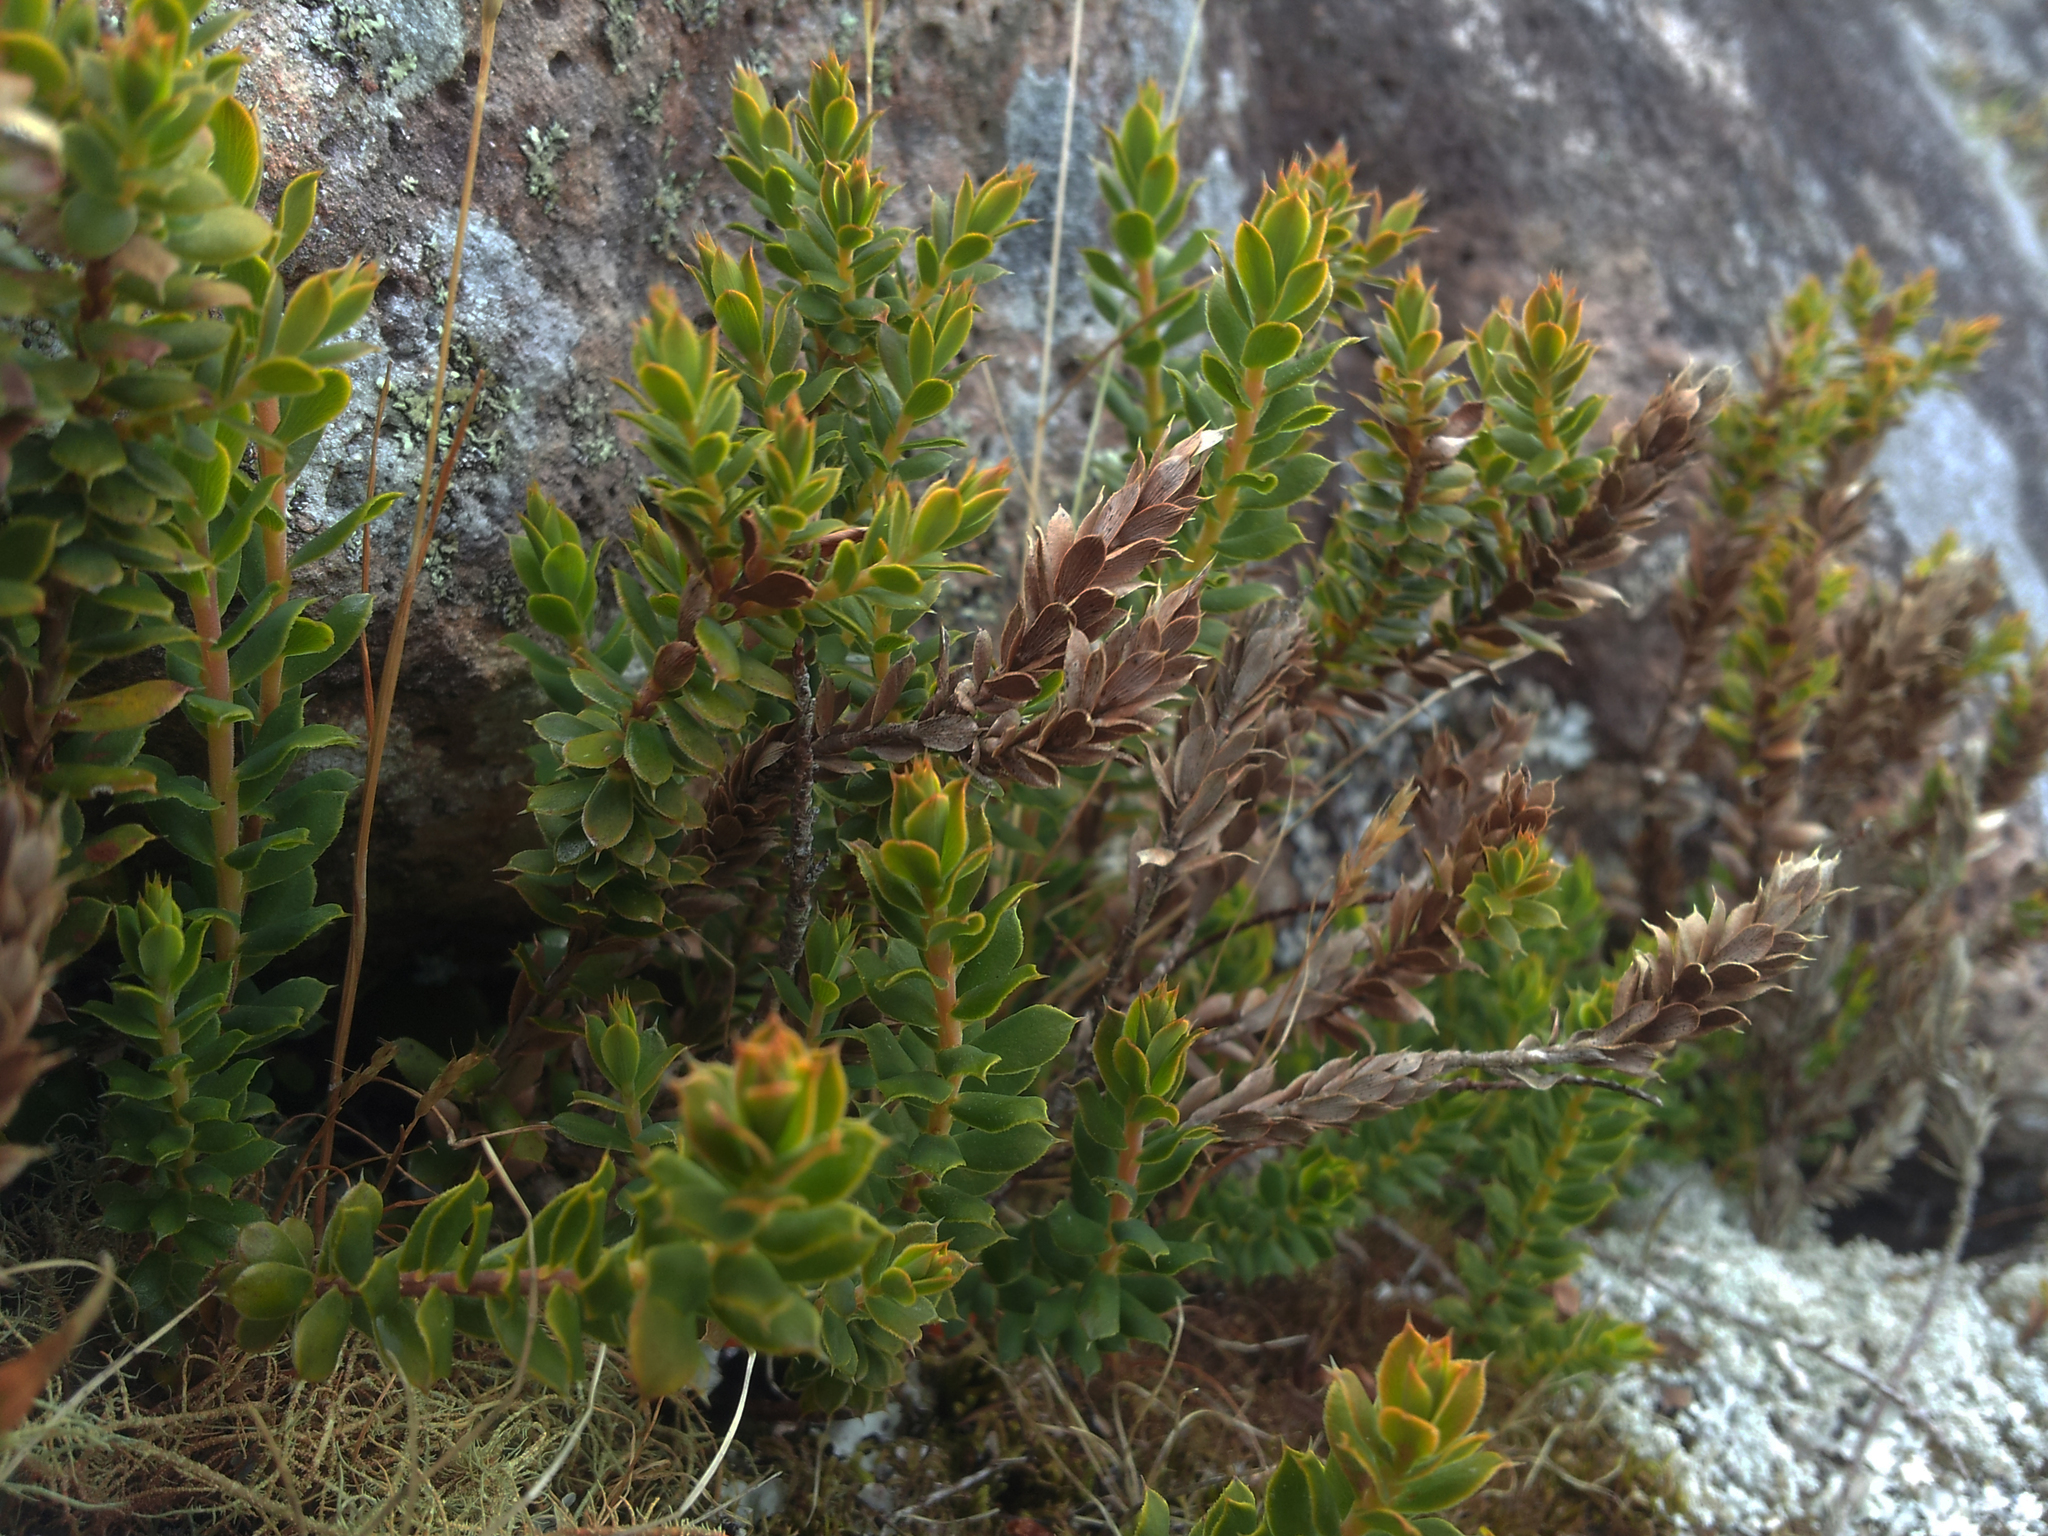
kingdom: Plantae
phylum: Tracheophyta
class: Magnoliopsida
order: Ericales
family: Ericaceae
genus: Styphelia
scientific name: Styphelia nesophila
